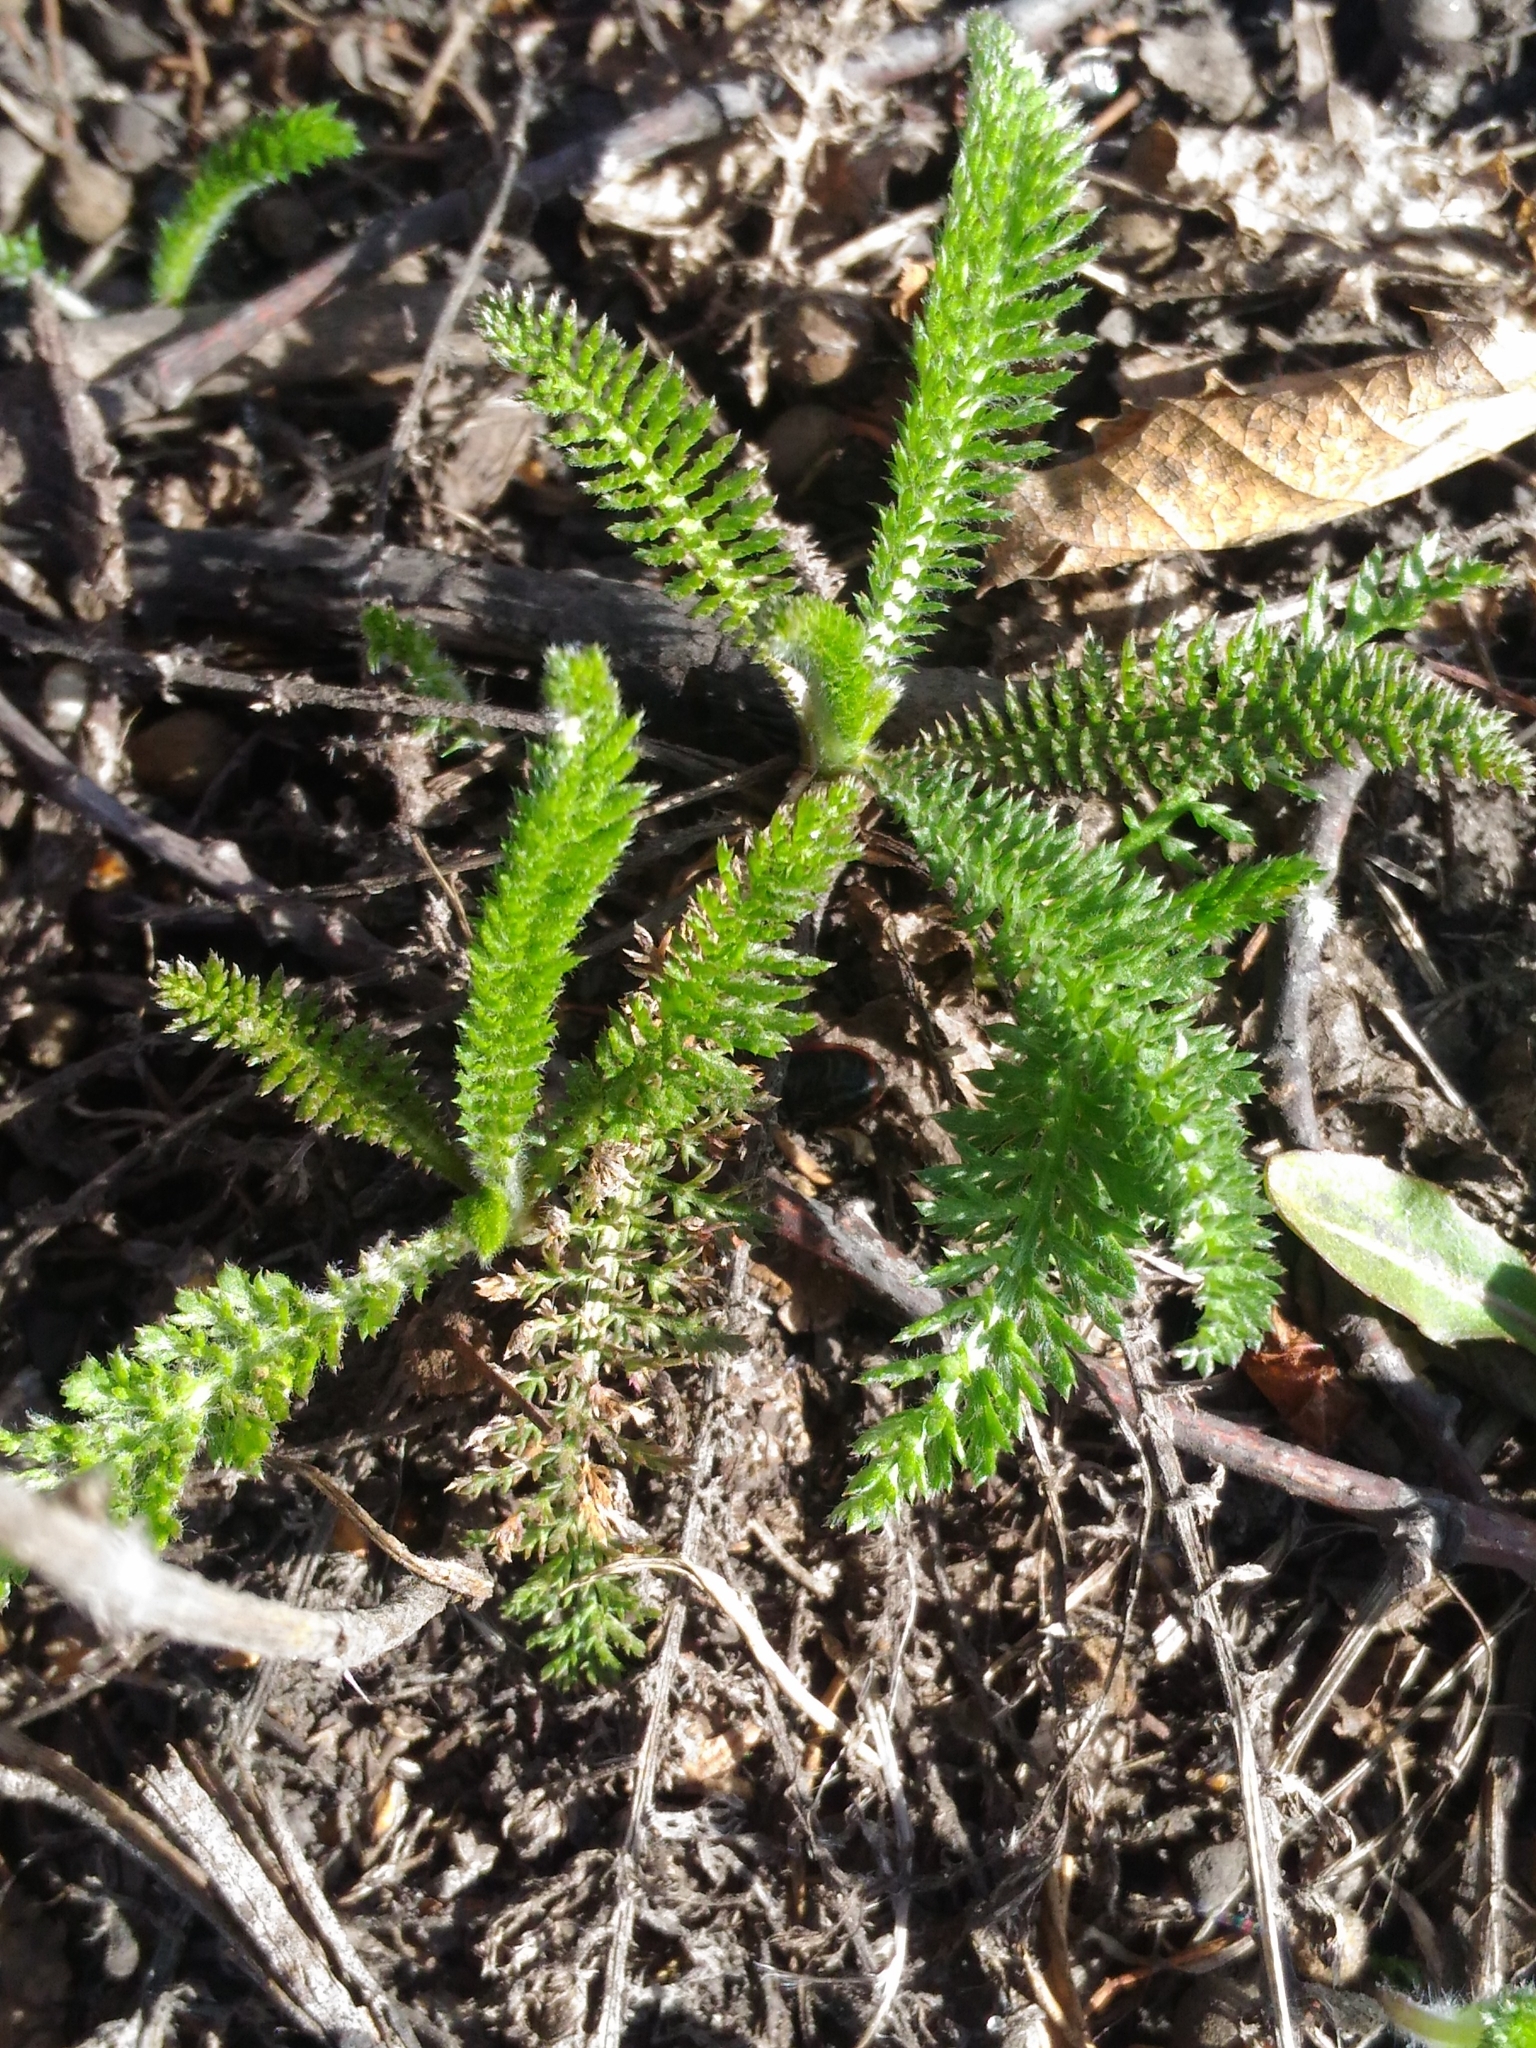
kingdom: Plantae
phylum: Tracheophyta
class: Magnoliopsida
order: Asterales
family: Asteraceae
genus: Achillea
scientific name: Achillea millefolium
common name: Yarrow
